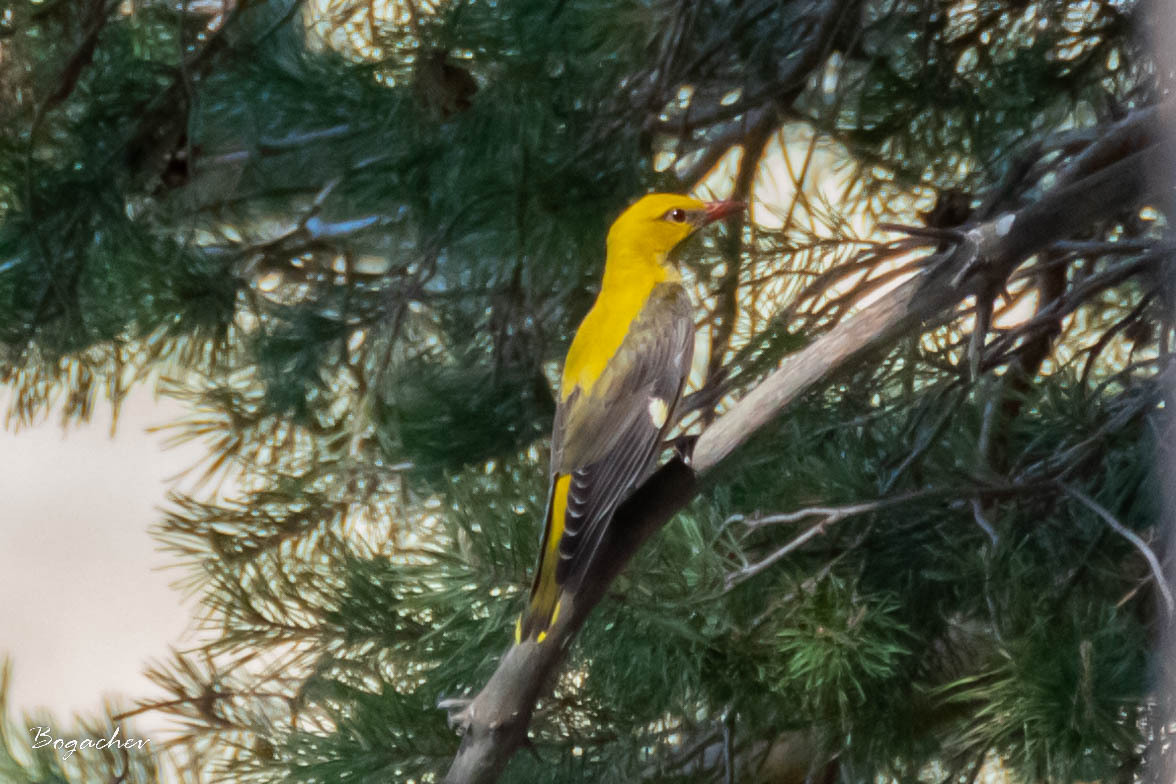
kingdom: Animalia
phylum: Chordata
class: Aves
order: Passeriformes
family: Oriolidae
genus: Oriolus
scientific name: Oriolus oriolus
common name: Eurasian golden oriole
